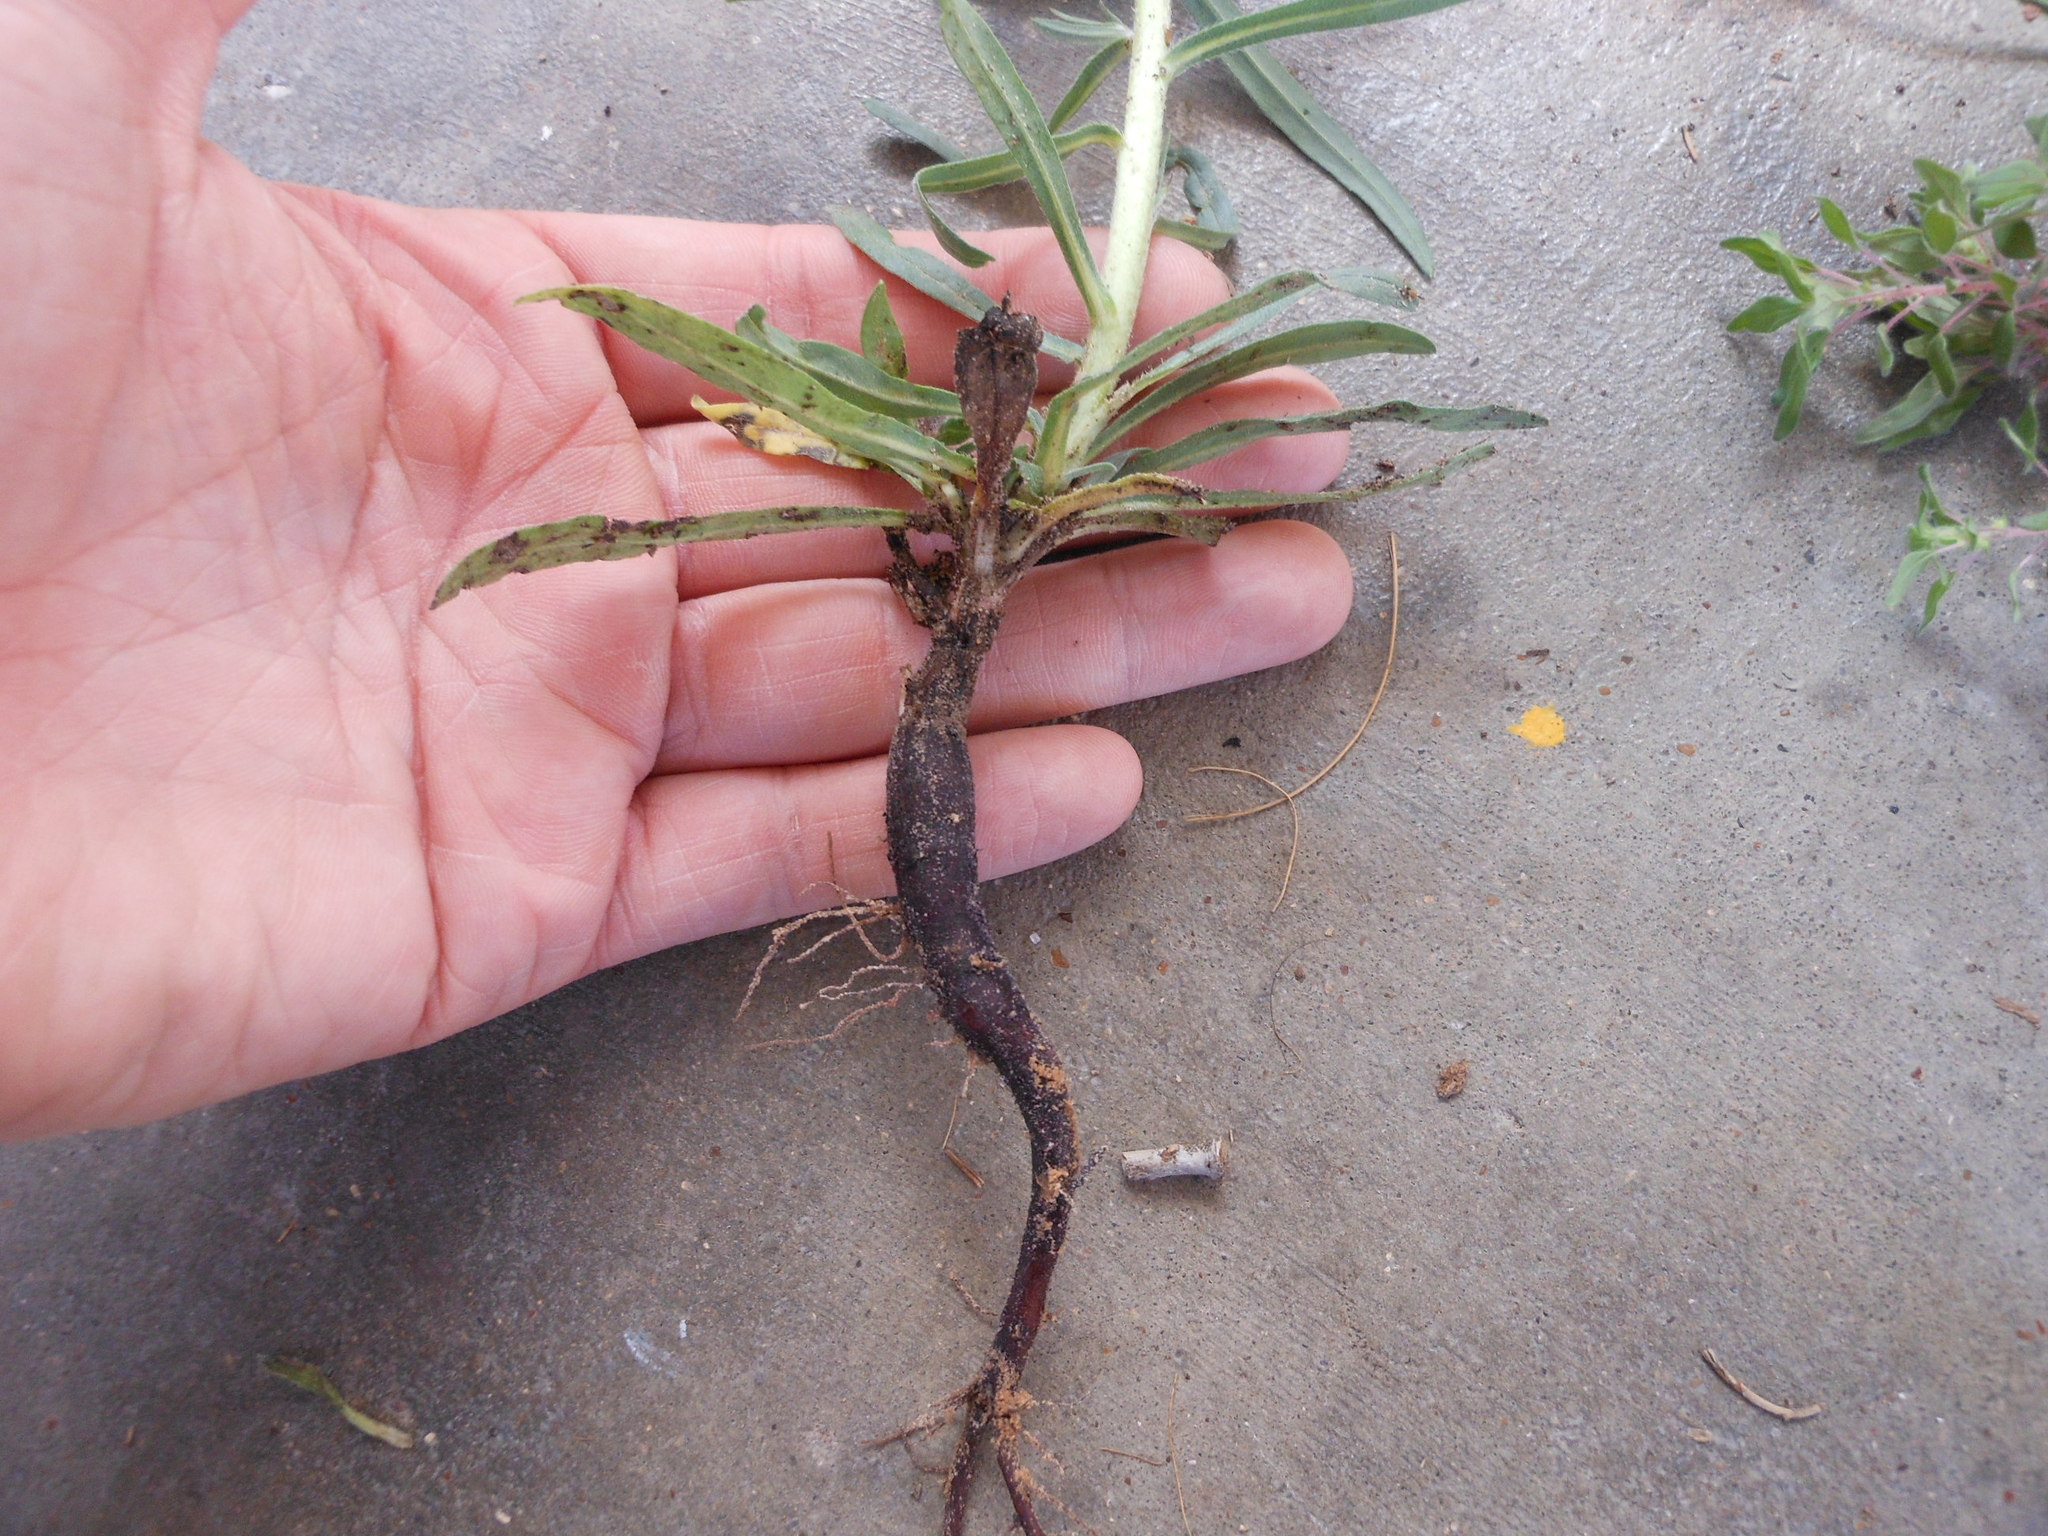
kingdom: Plantae
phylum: Tracheophyta
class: Magnoliopsida
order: Boraginales
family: Boraginaceae
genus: Lithospermum
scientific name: Lithospermum incisum
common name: Fringed gromwell
